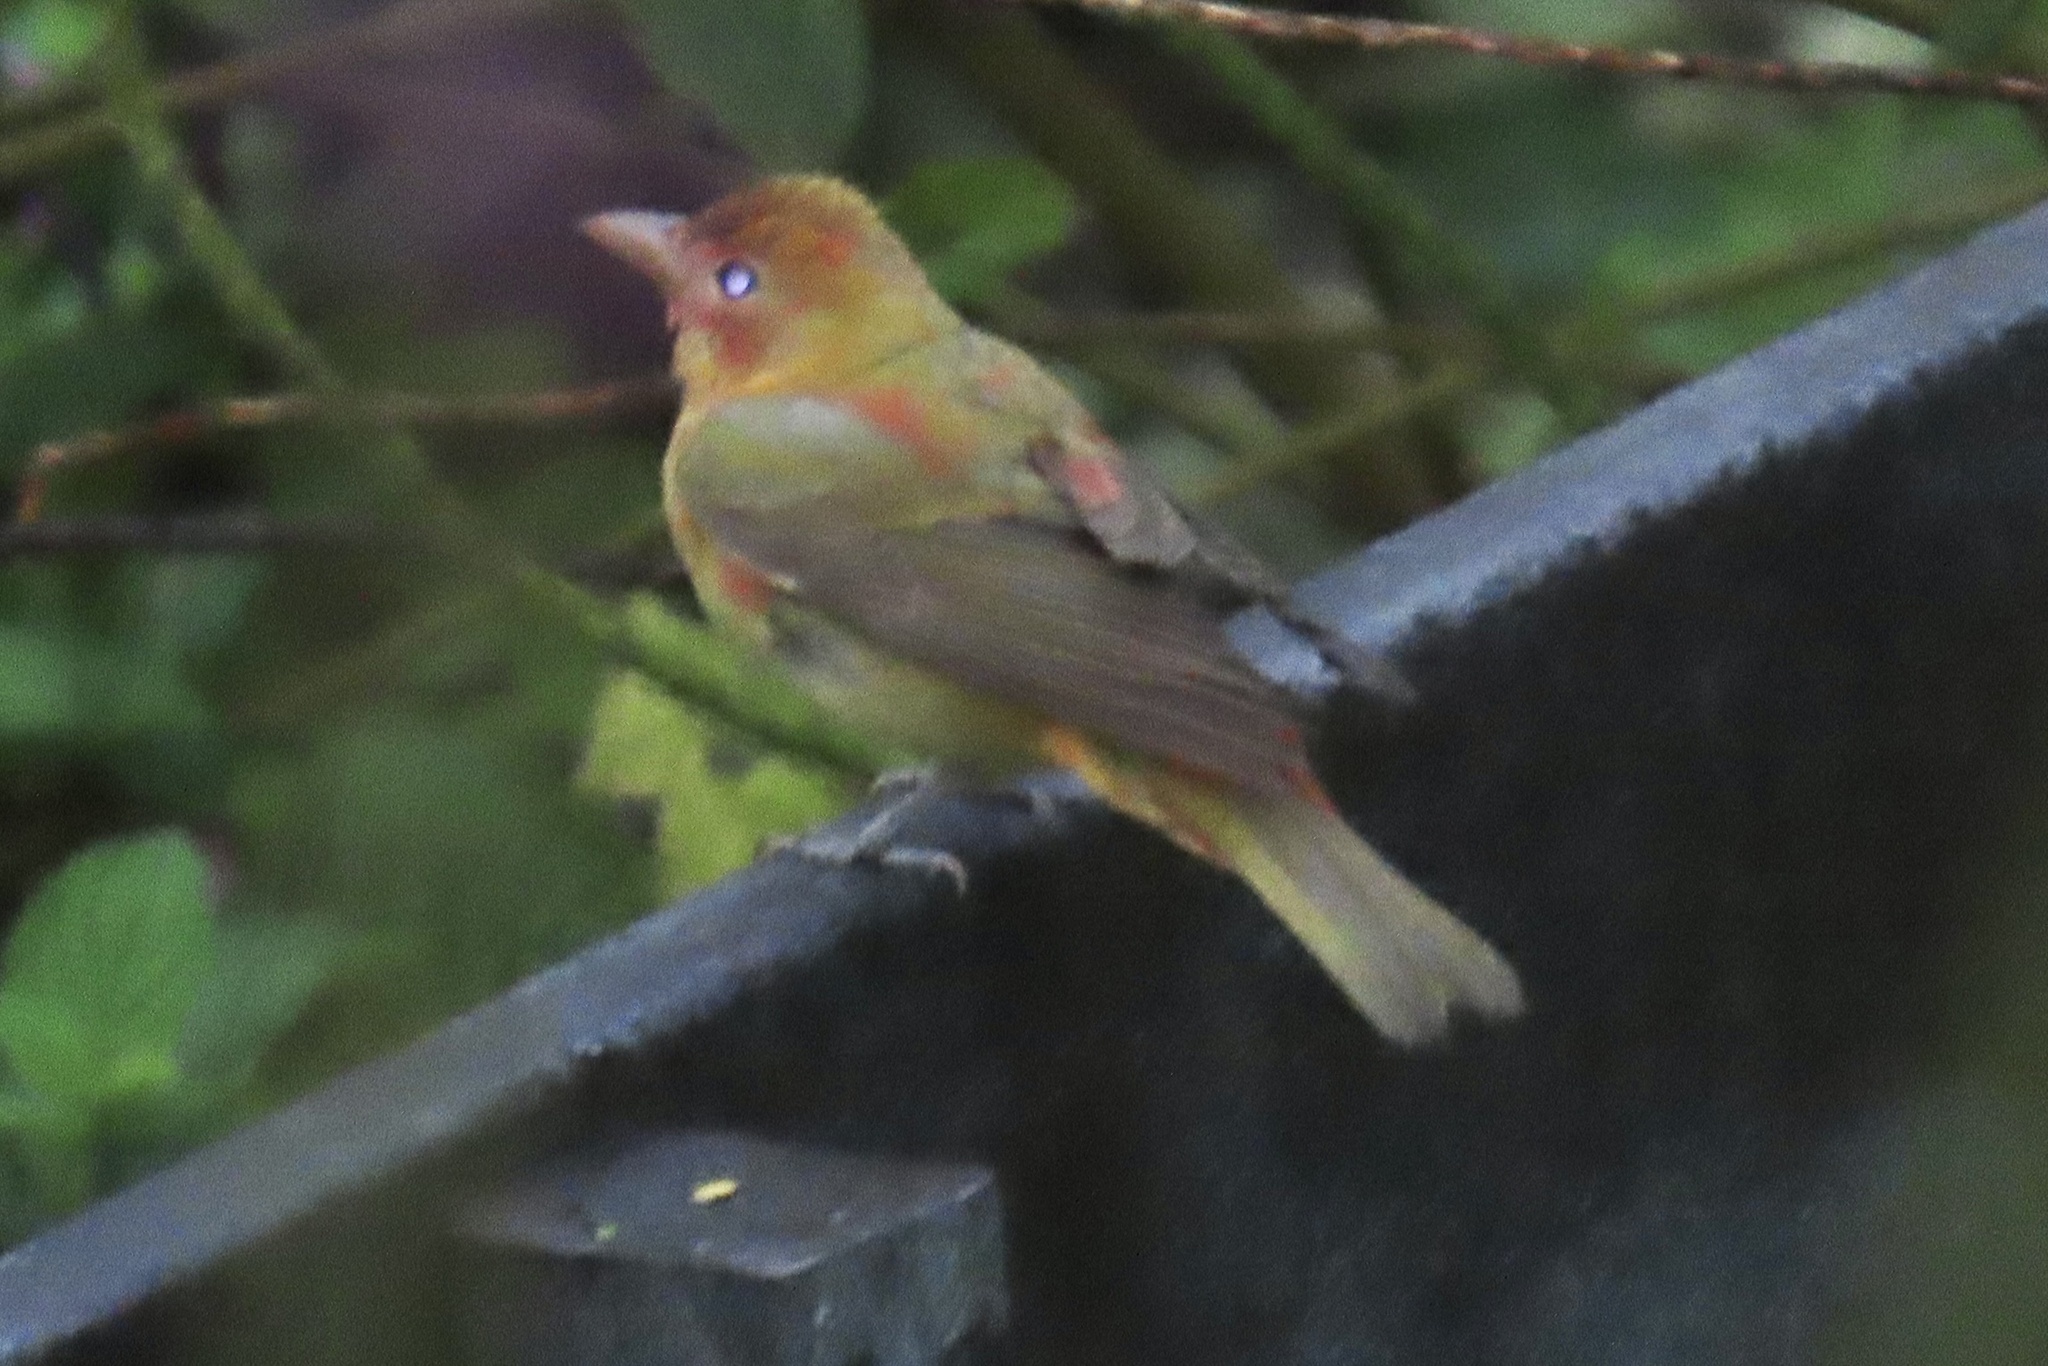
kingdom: Animalia
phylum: Chordata
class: Aves
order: Passeriformes
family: Cardinalidae
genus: Piranga
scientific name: Piranga rubra
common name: Summer tanager
